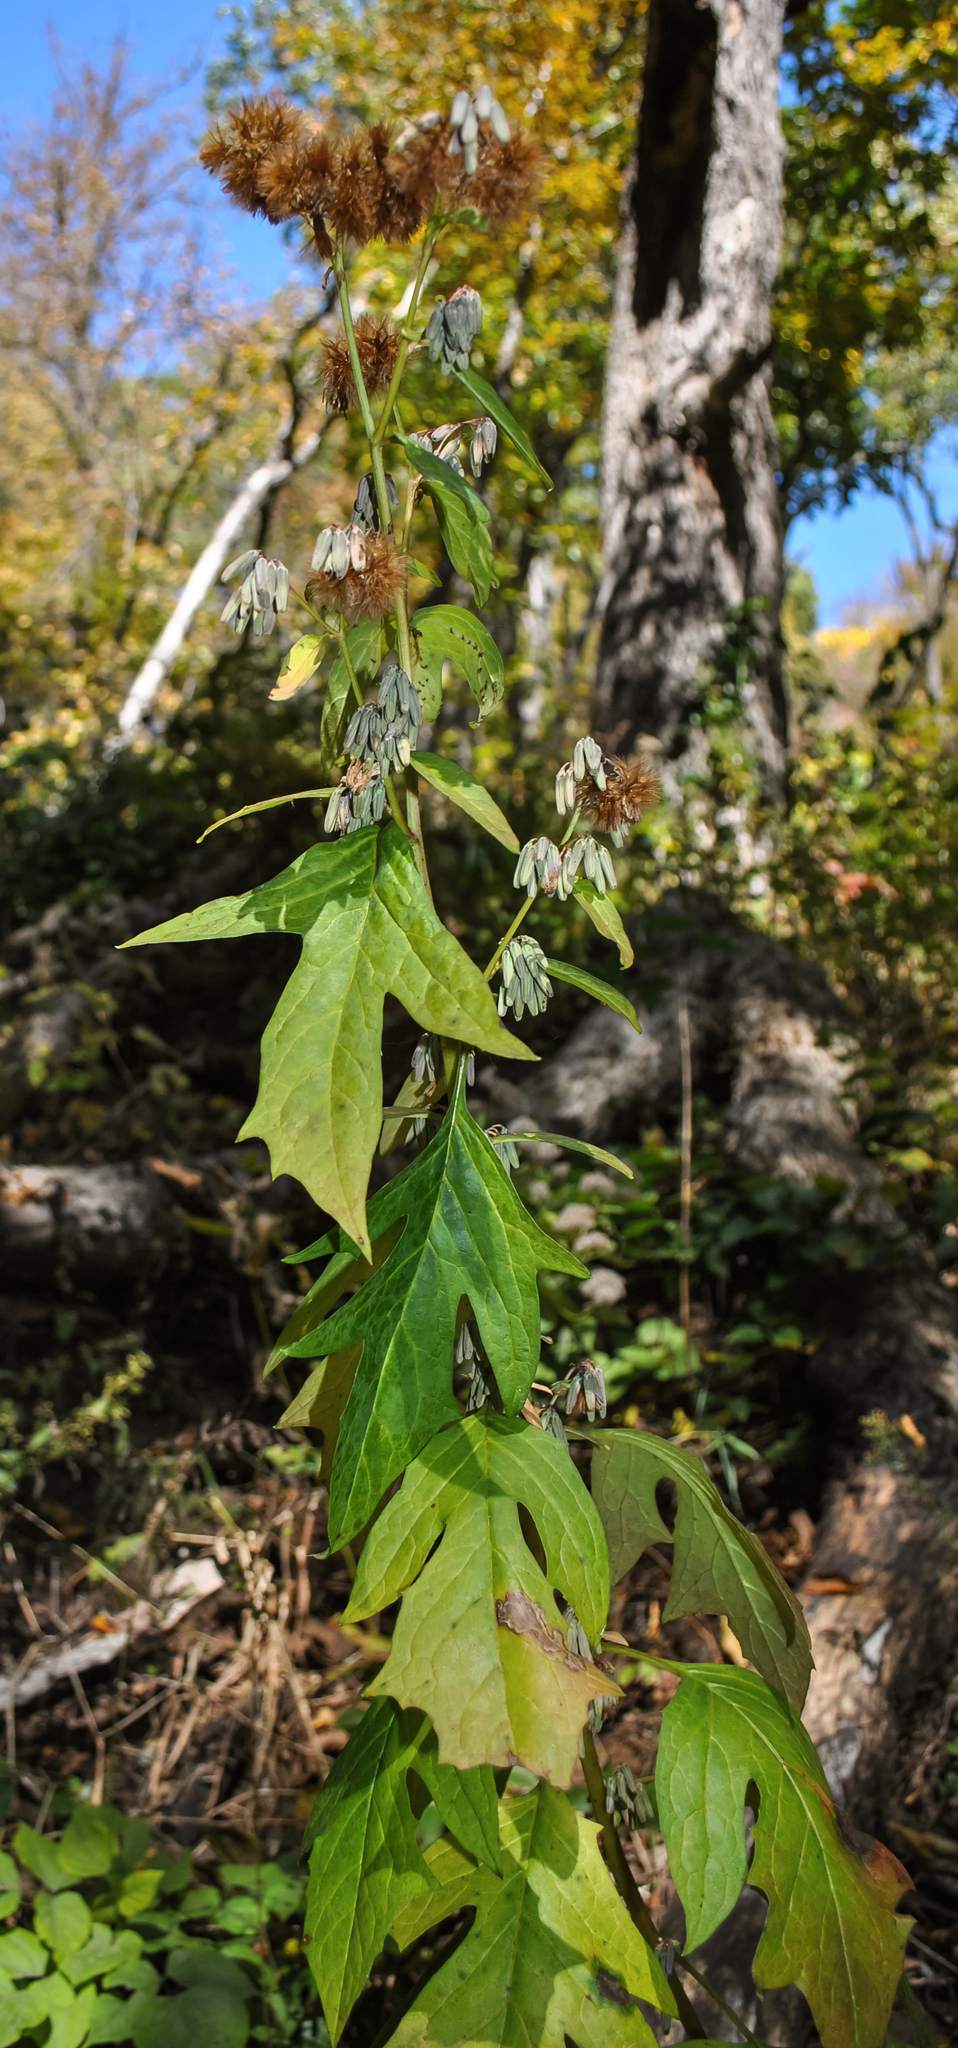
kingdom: Plantae
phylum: Tracheophyta
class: Magnoliopsida
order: Asterales
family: Asteraceae
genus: Nabalus
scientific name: Nabalus albus
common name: White rattlesnakeroot
